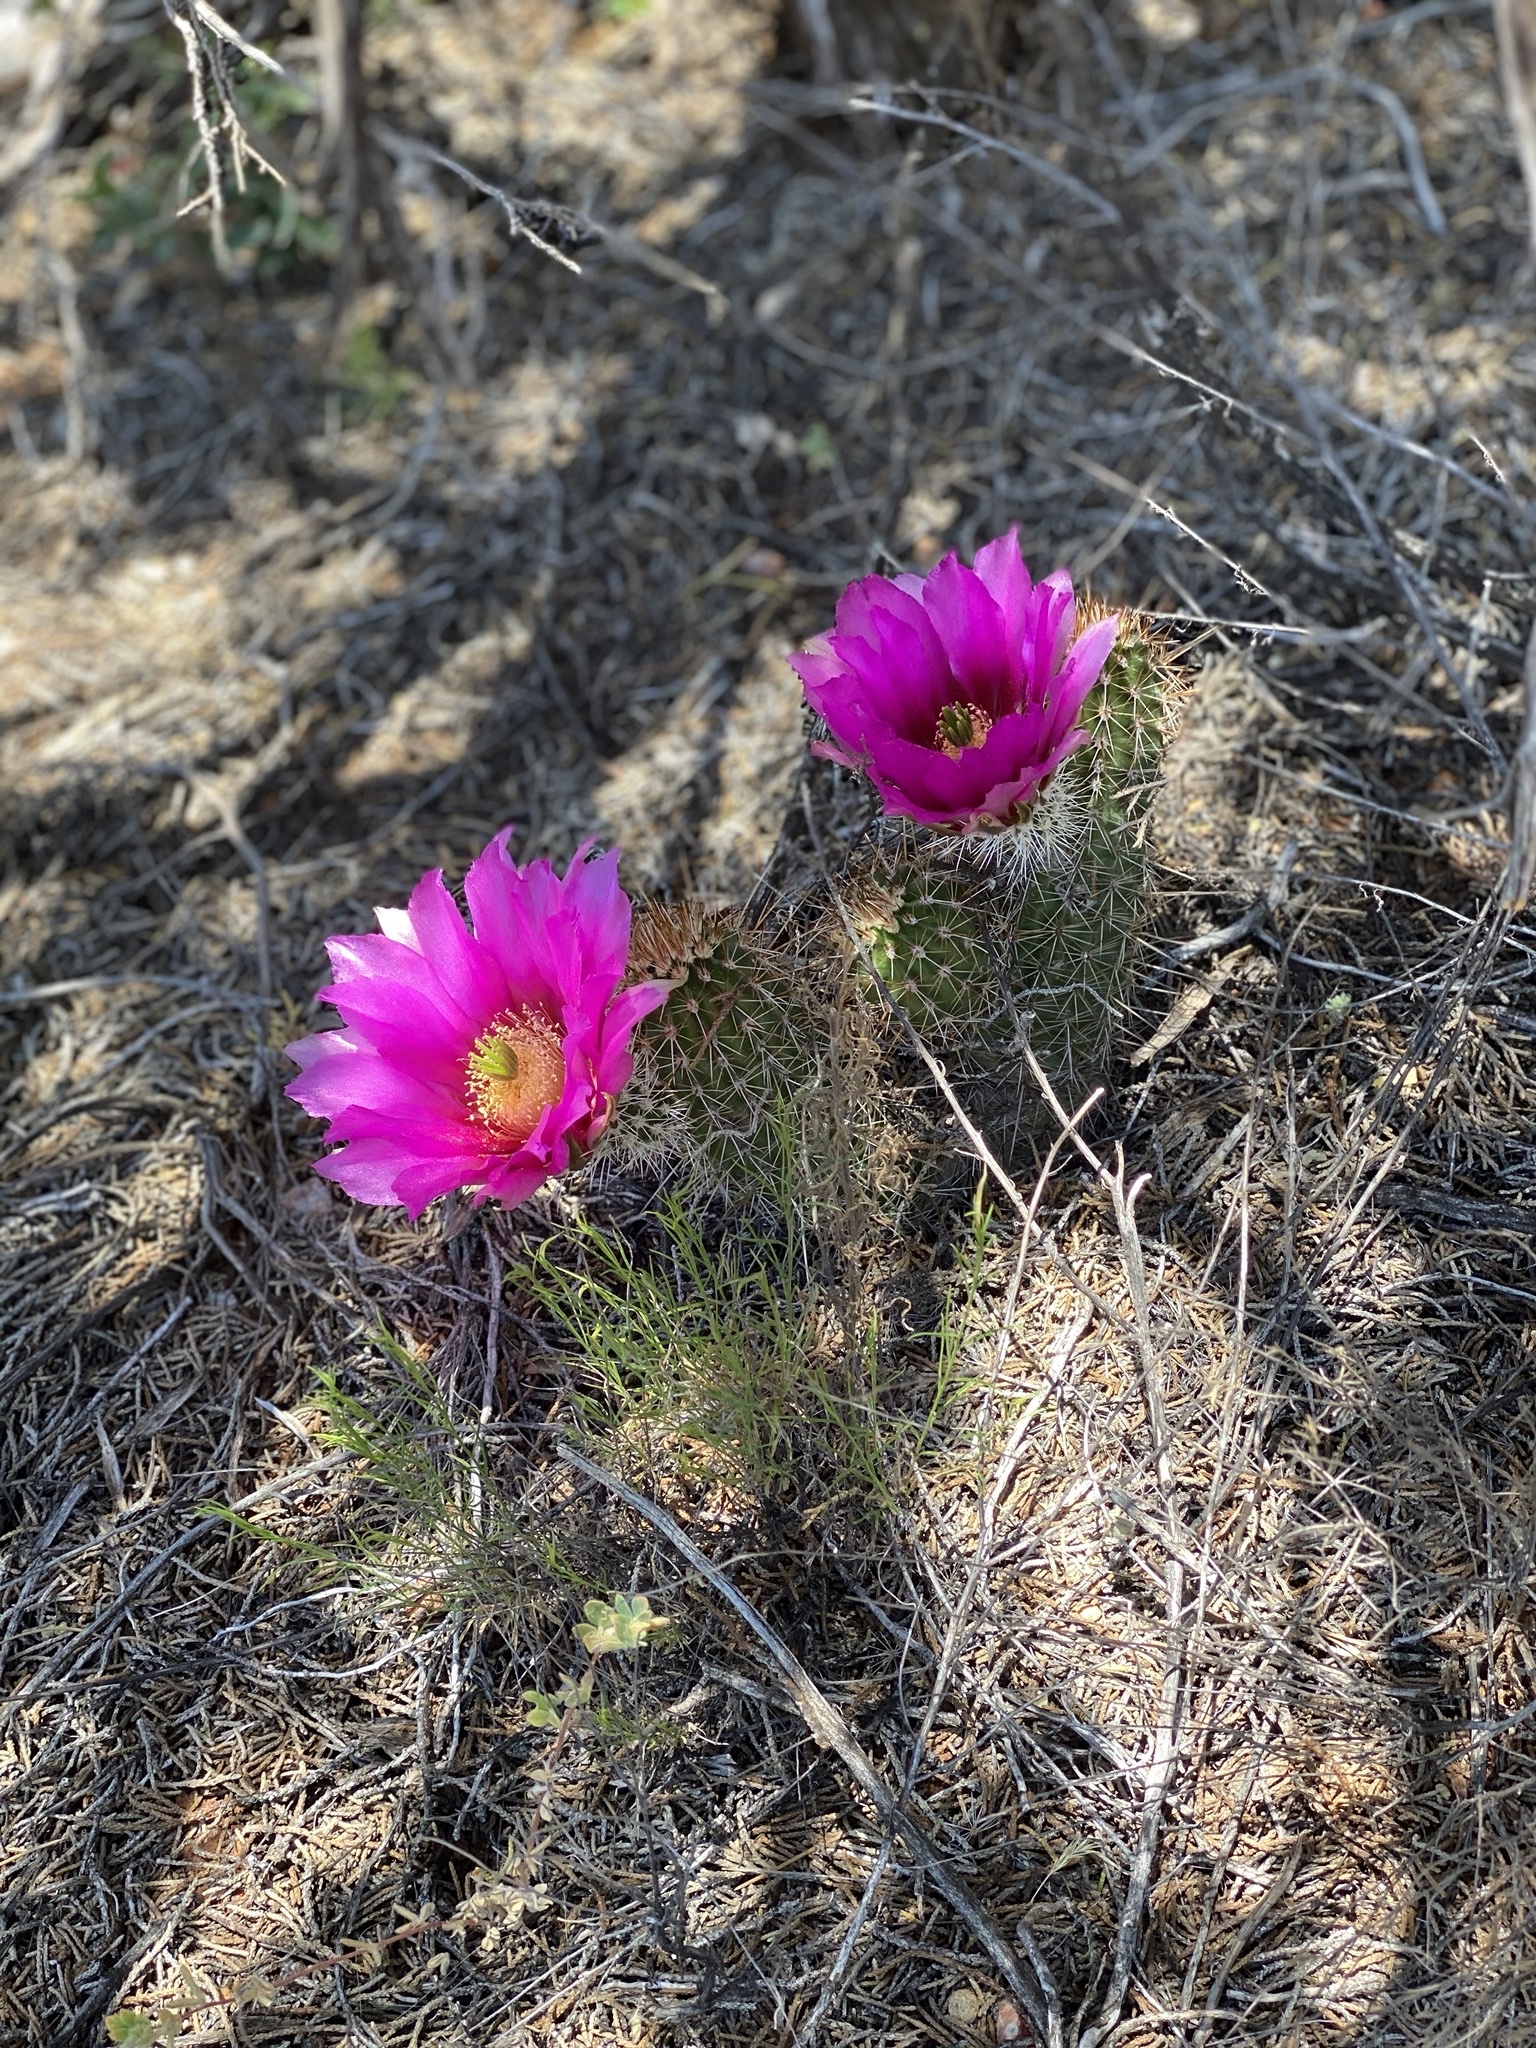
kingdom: Plantae
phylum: Tracheophyta
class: Magnoliopsida
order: Caryophyllales
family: Cactaceae
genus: Echinocereus
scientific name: Echinocereus fasciculatus
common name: Bundle hedgehog
